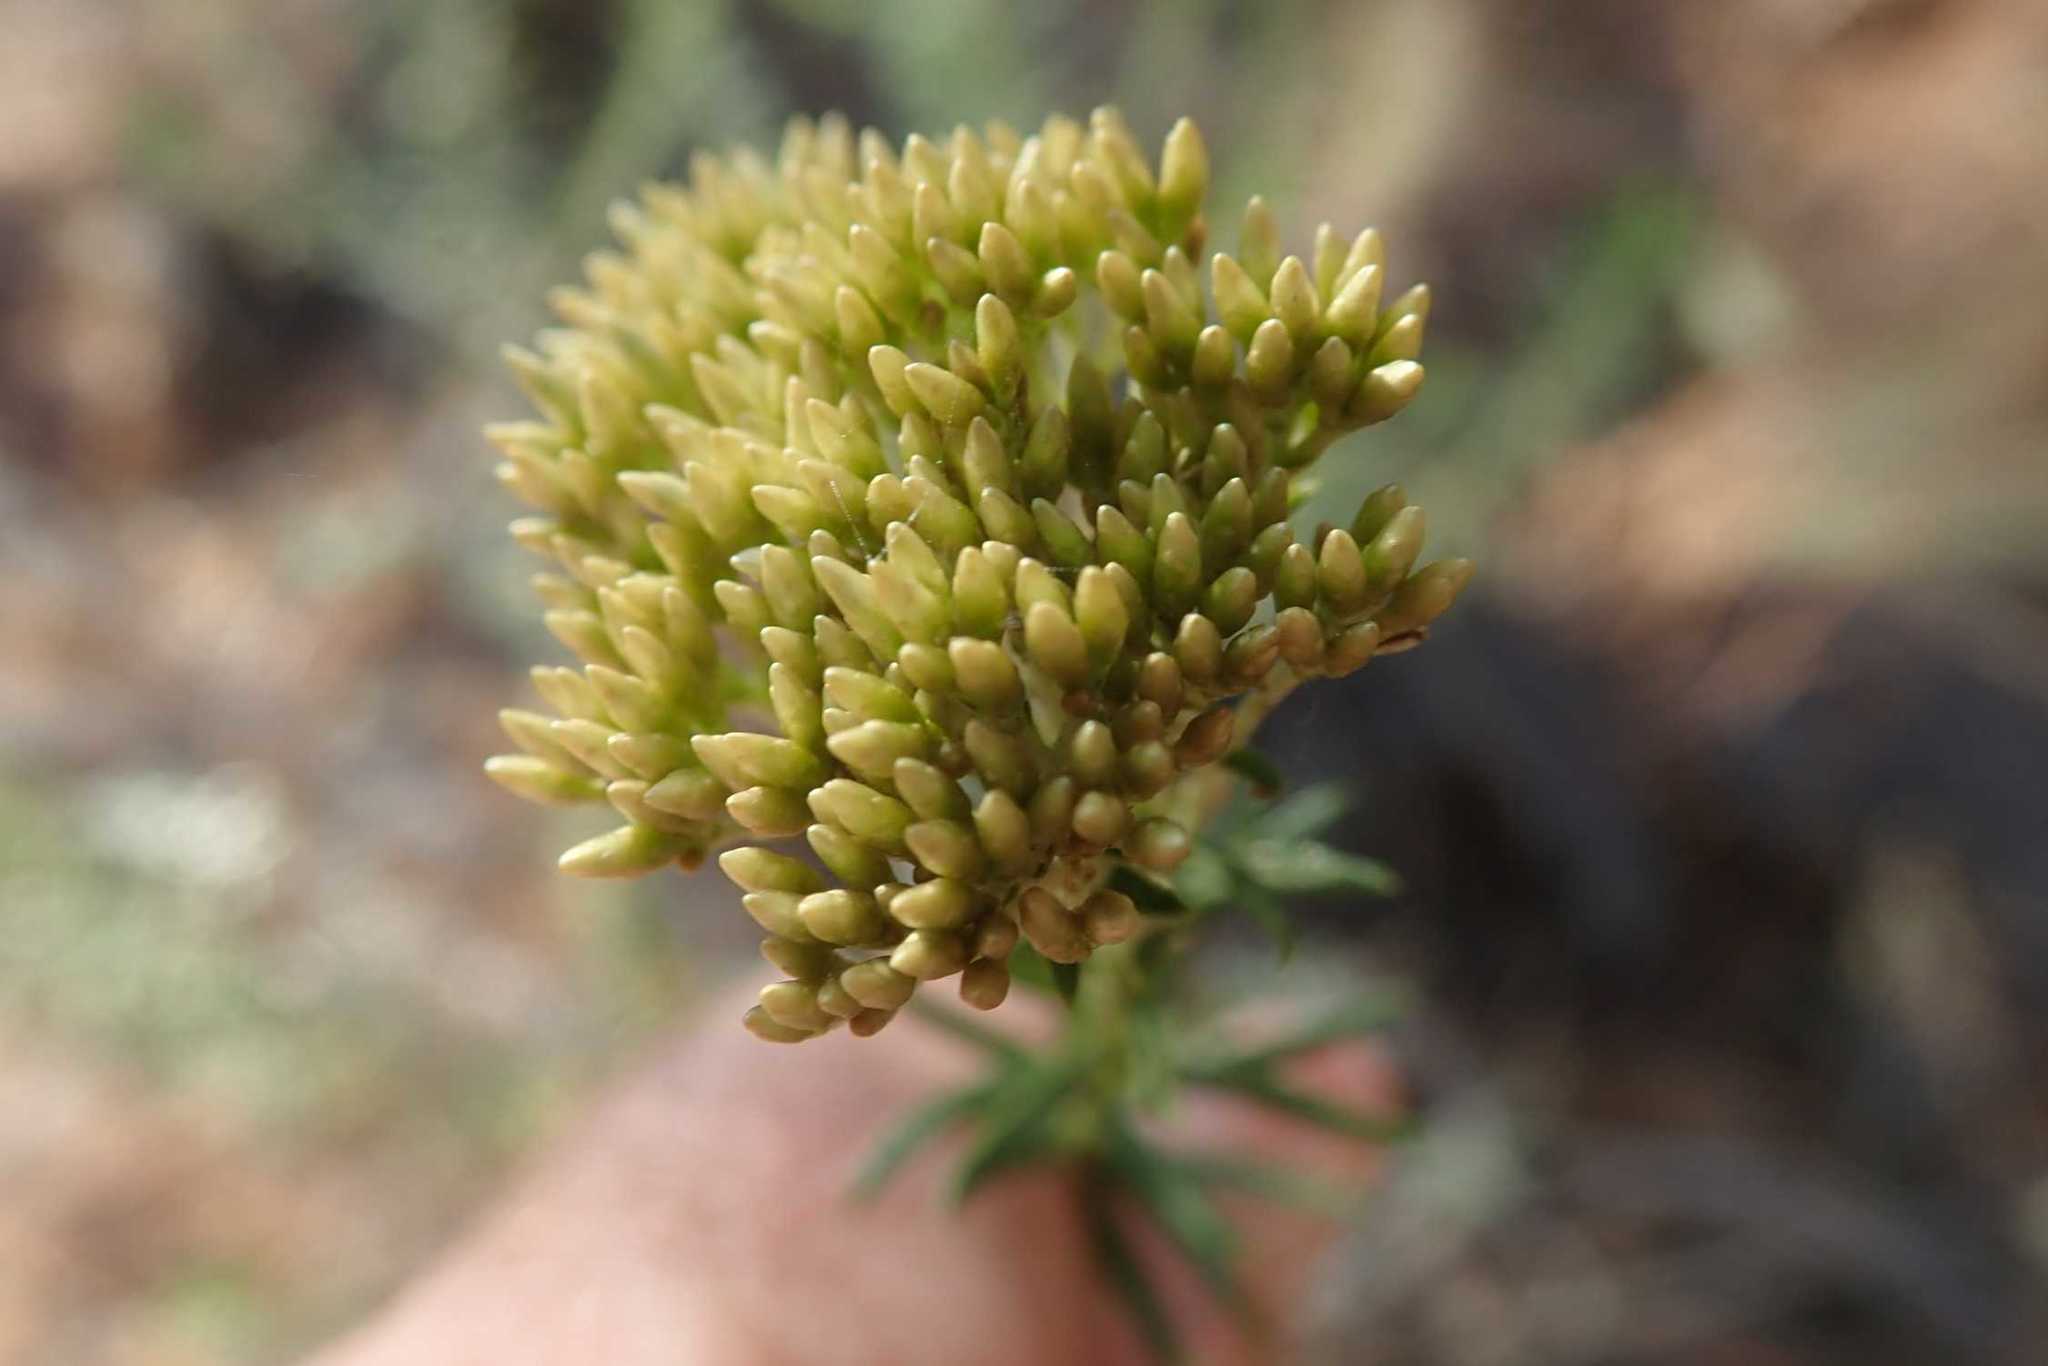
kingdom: Plantae
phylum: Tracheophyta
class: Magnoliopsida
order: Asterales
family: Asteraceae
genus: Helichrysum
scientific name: Helichrysum kraussii
